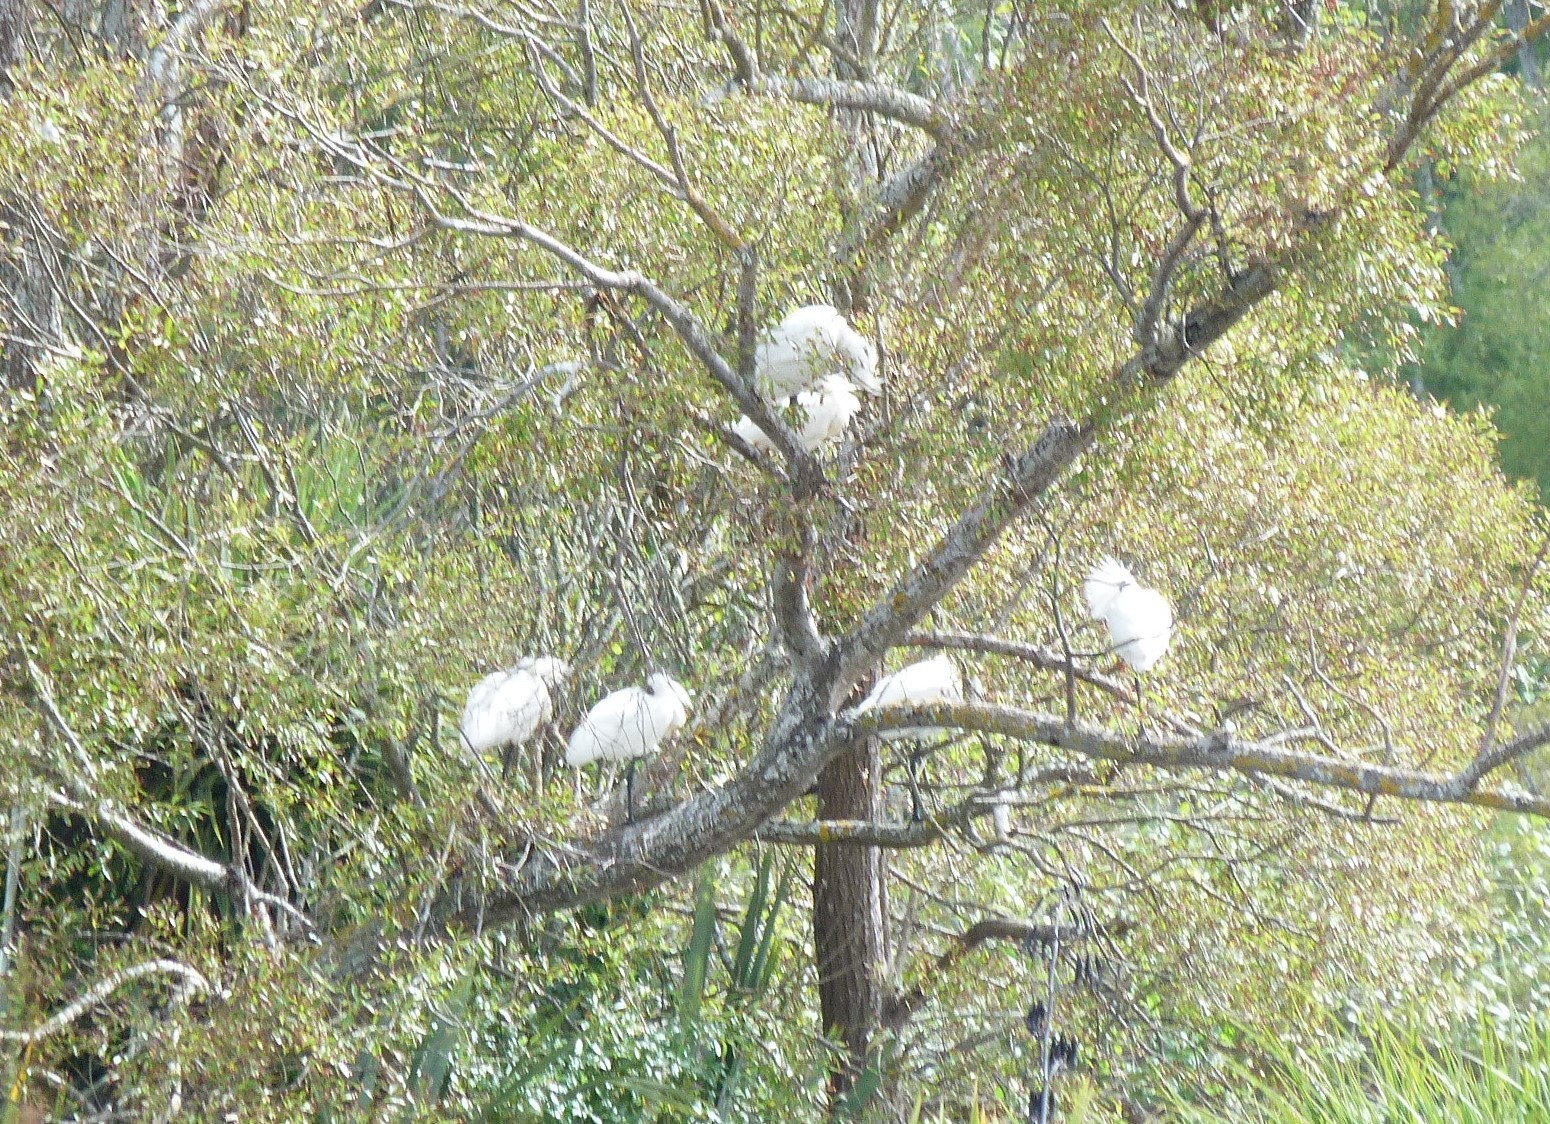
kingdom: Animalia
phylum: Chordata
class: Aves
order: Pelecaniformes
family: Threskiornithidae
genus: Platalea
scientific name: Platalea regia
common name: Royal spoonbill
